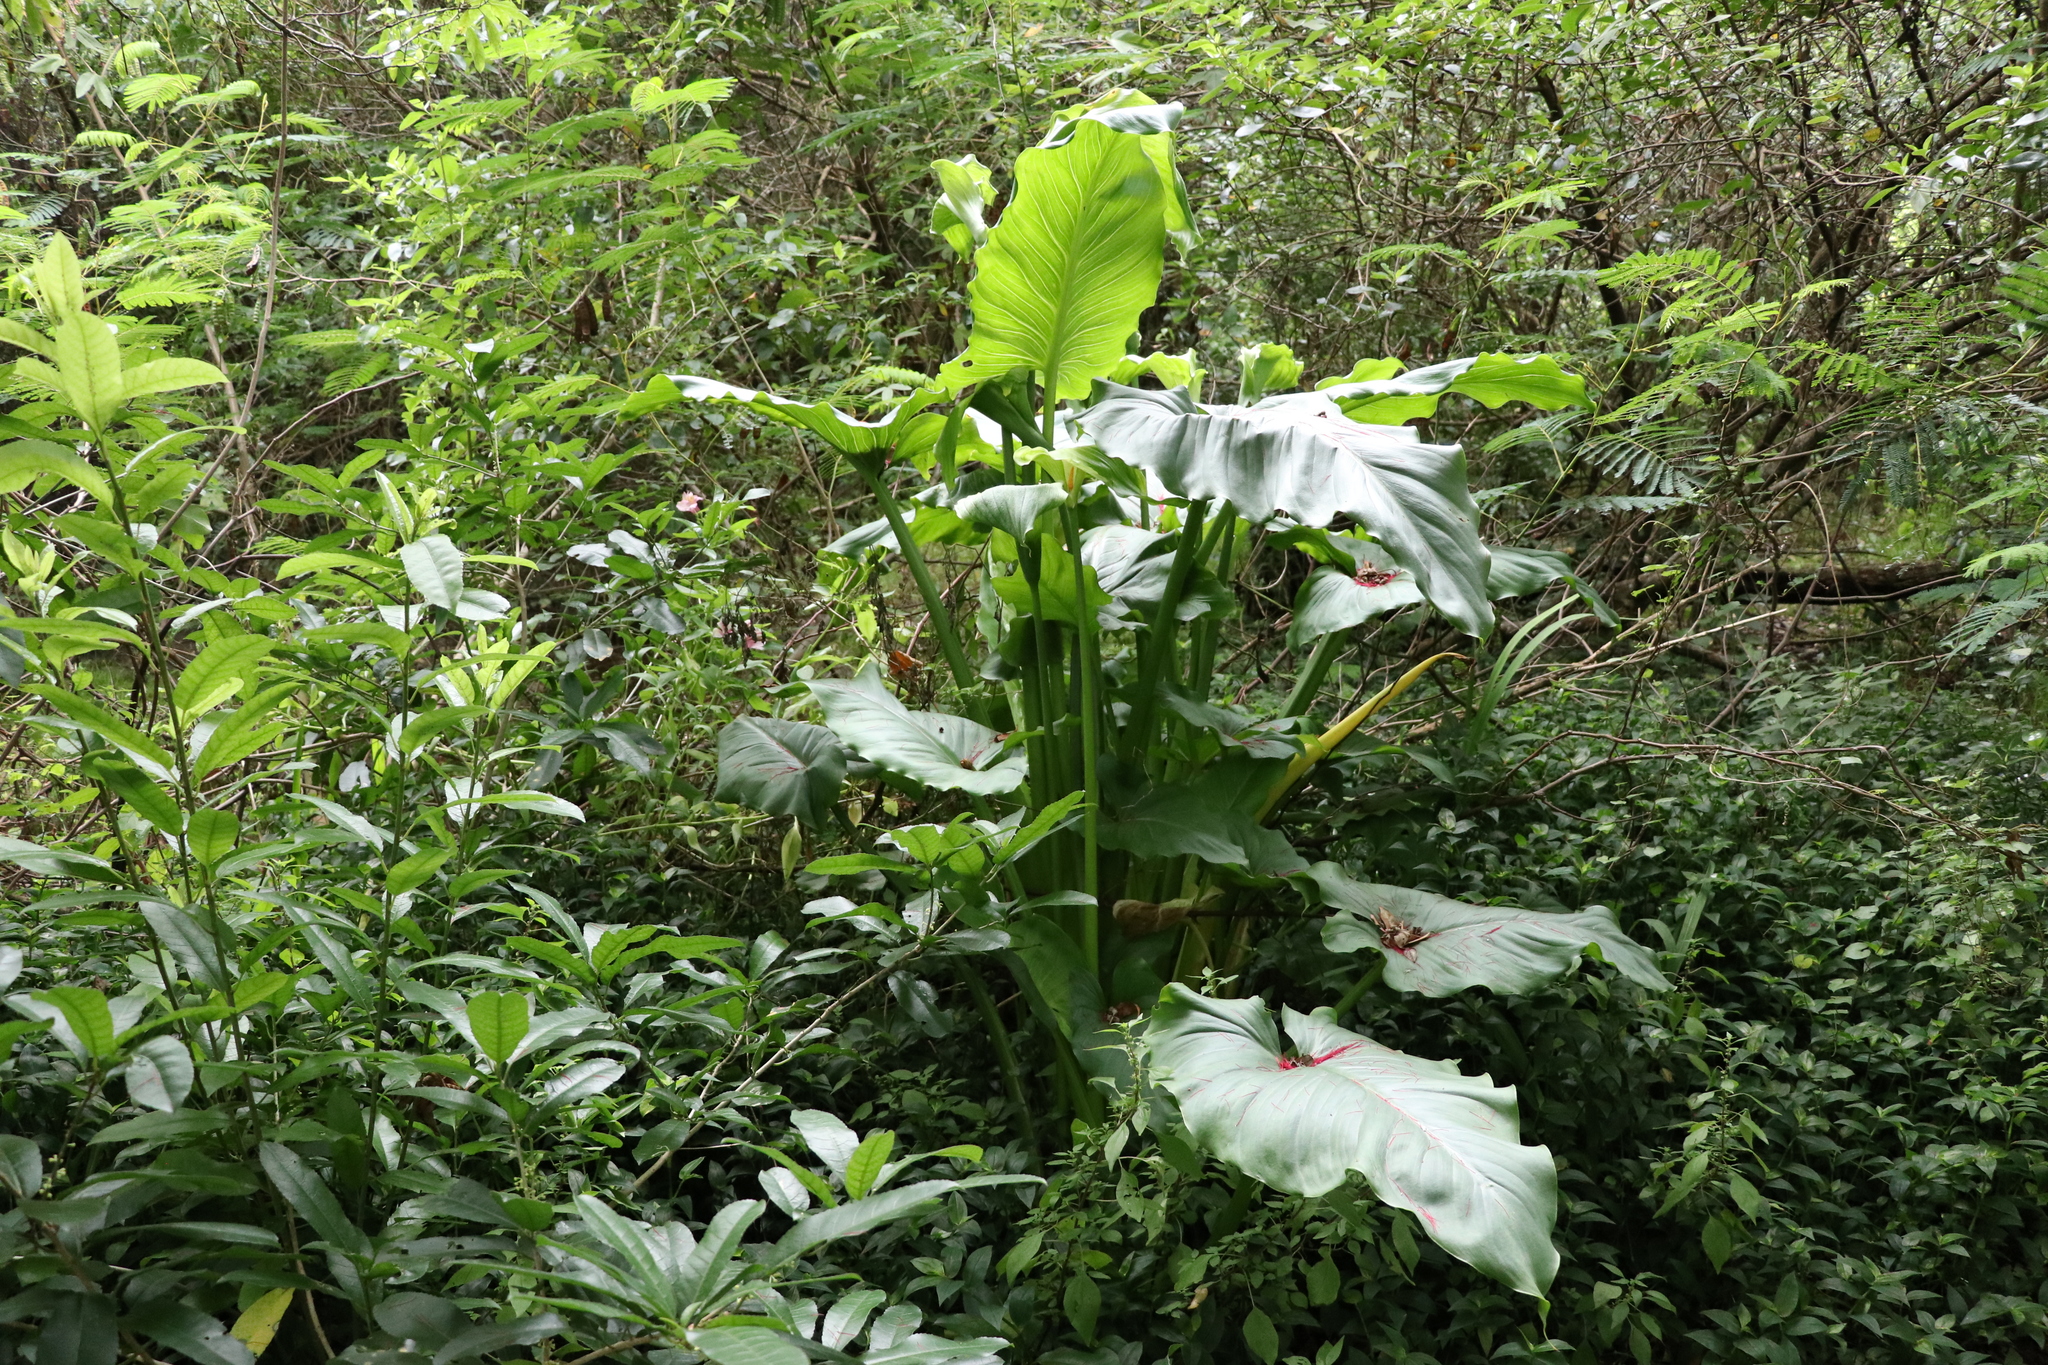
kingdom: Plantae
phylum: Tracheophyta
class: Liliopsida
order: Alismatales
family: Araceae
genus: Zantedeschia
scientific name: Zantedeschia aethiopica
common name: Altar-lily
